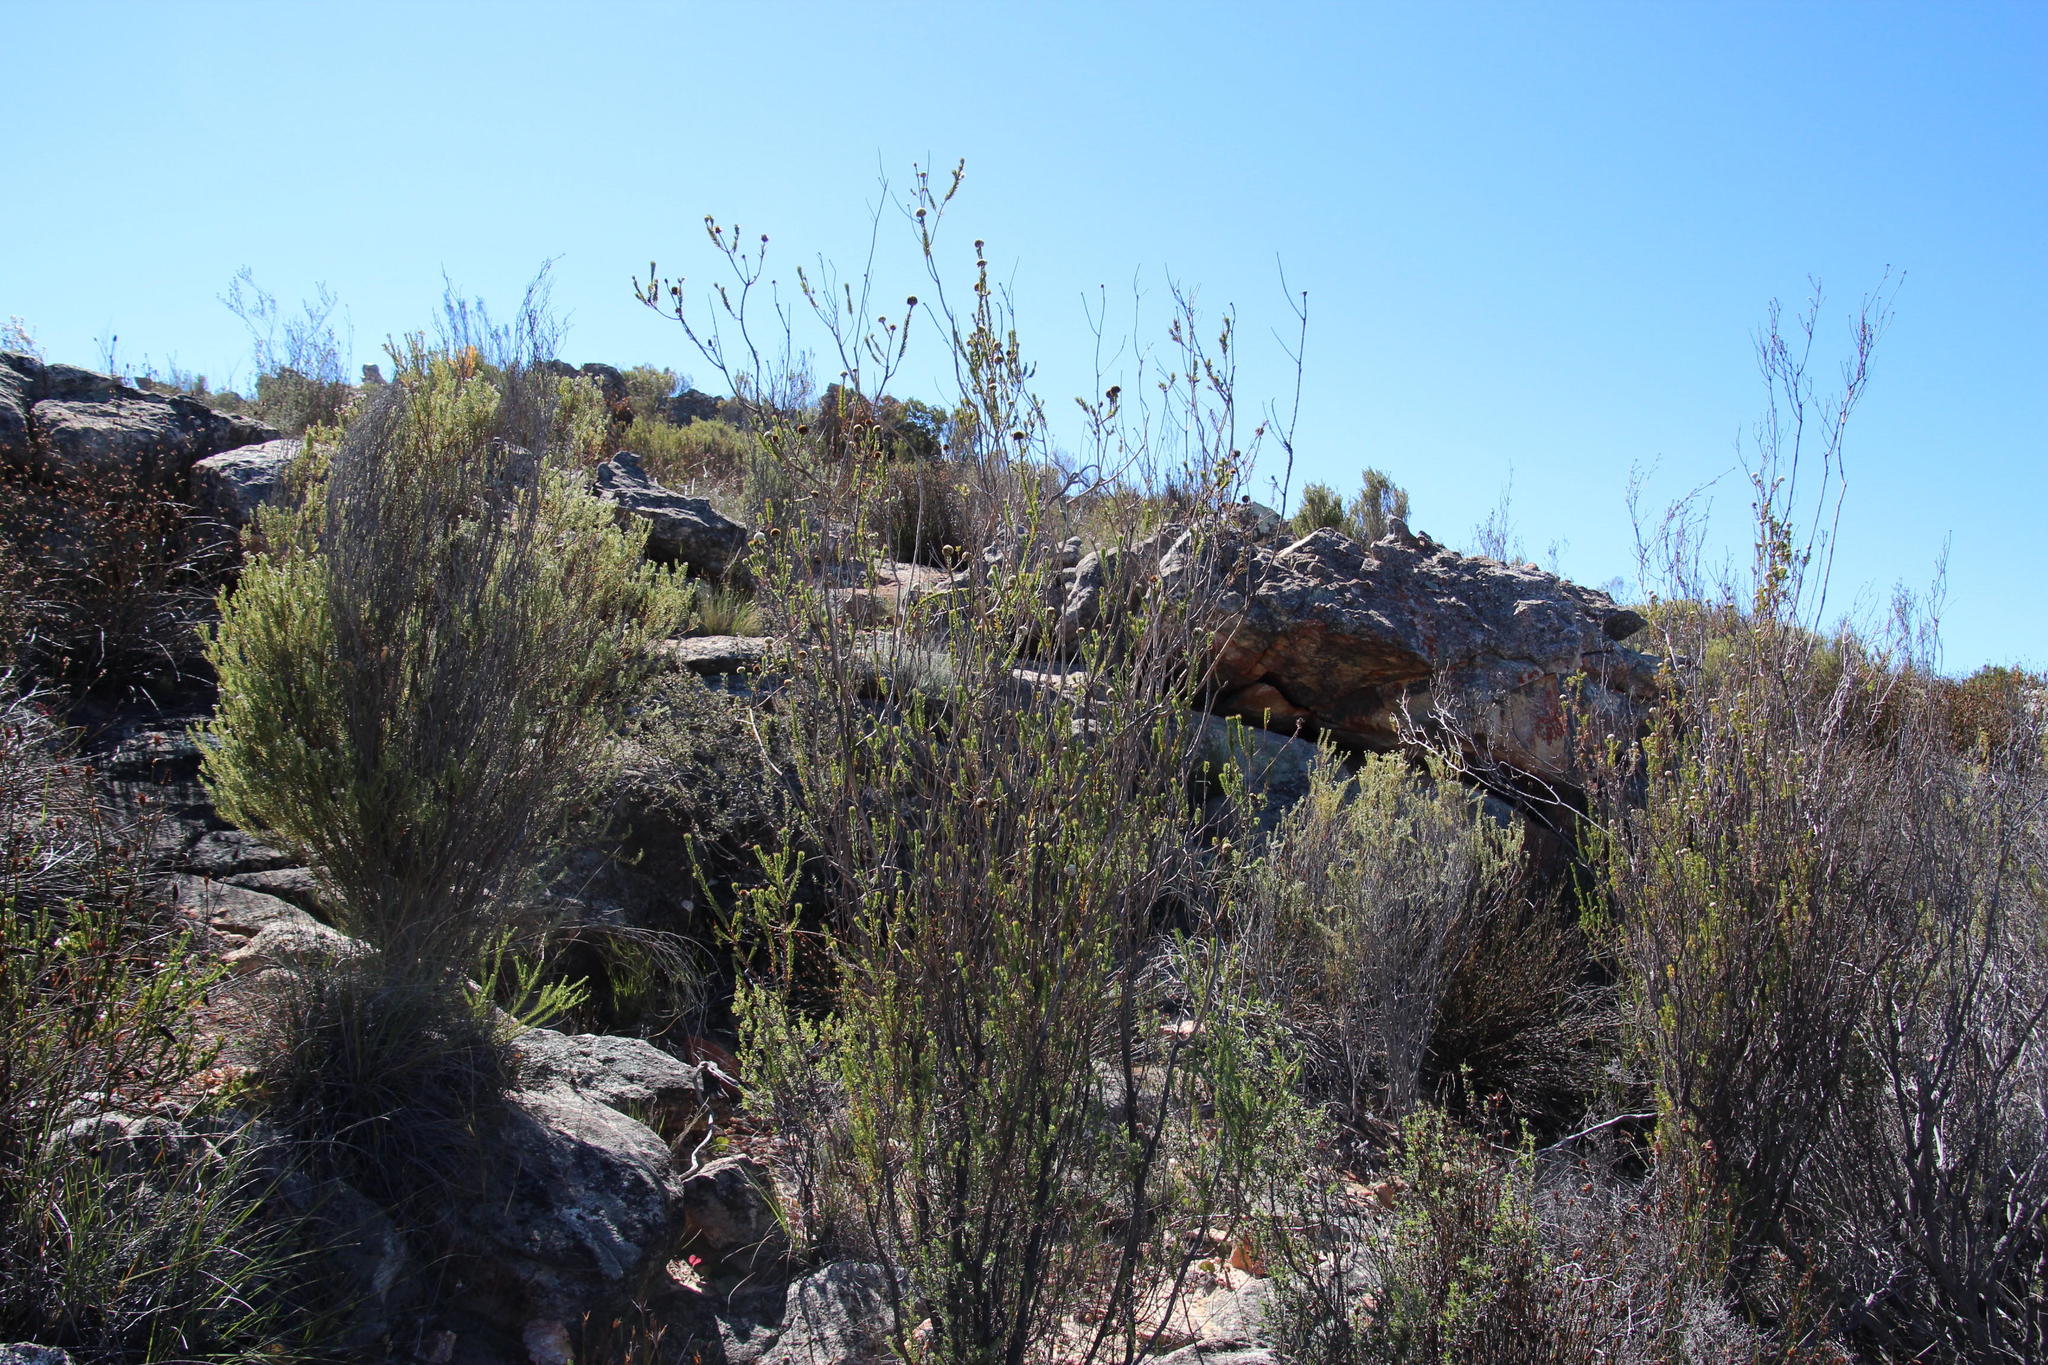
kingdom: Plantae
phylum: Tracheophyta
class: Magnoliopsida
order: Asterales
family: Asteraceae
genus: Stoebe
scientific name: Stoebe aethiopica
